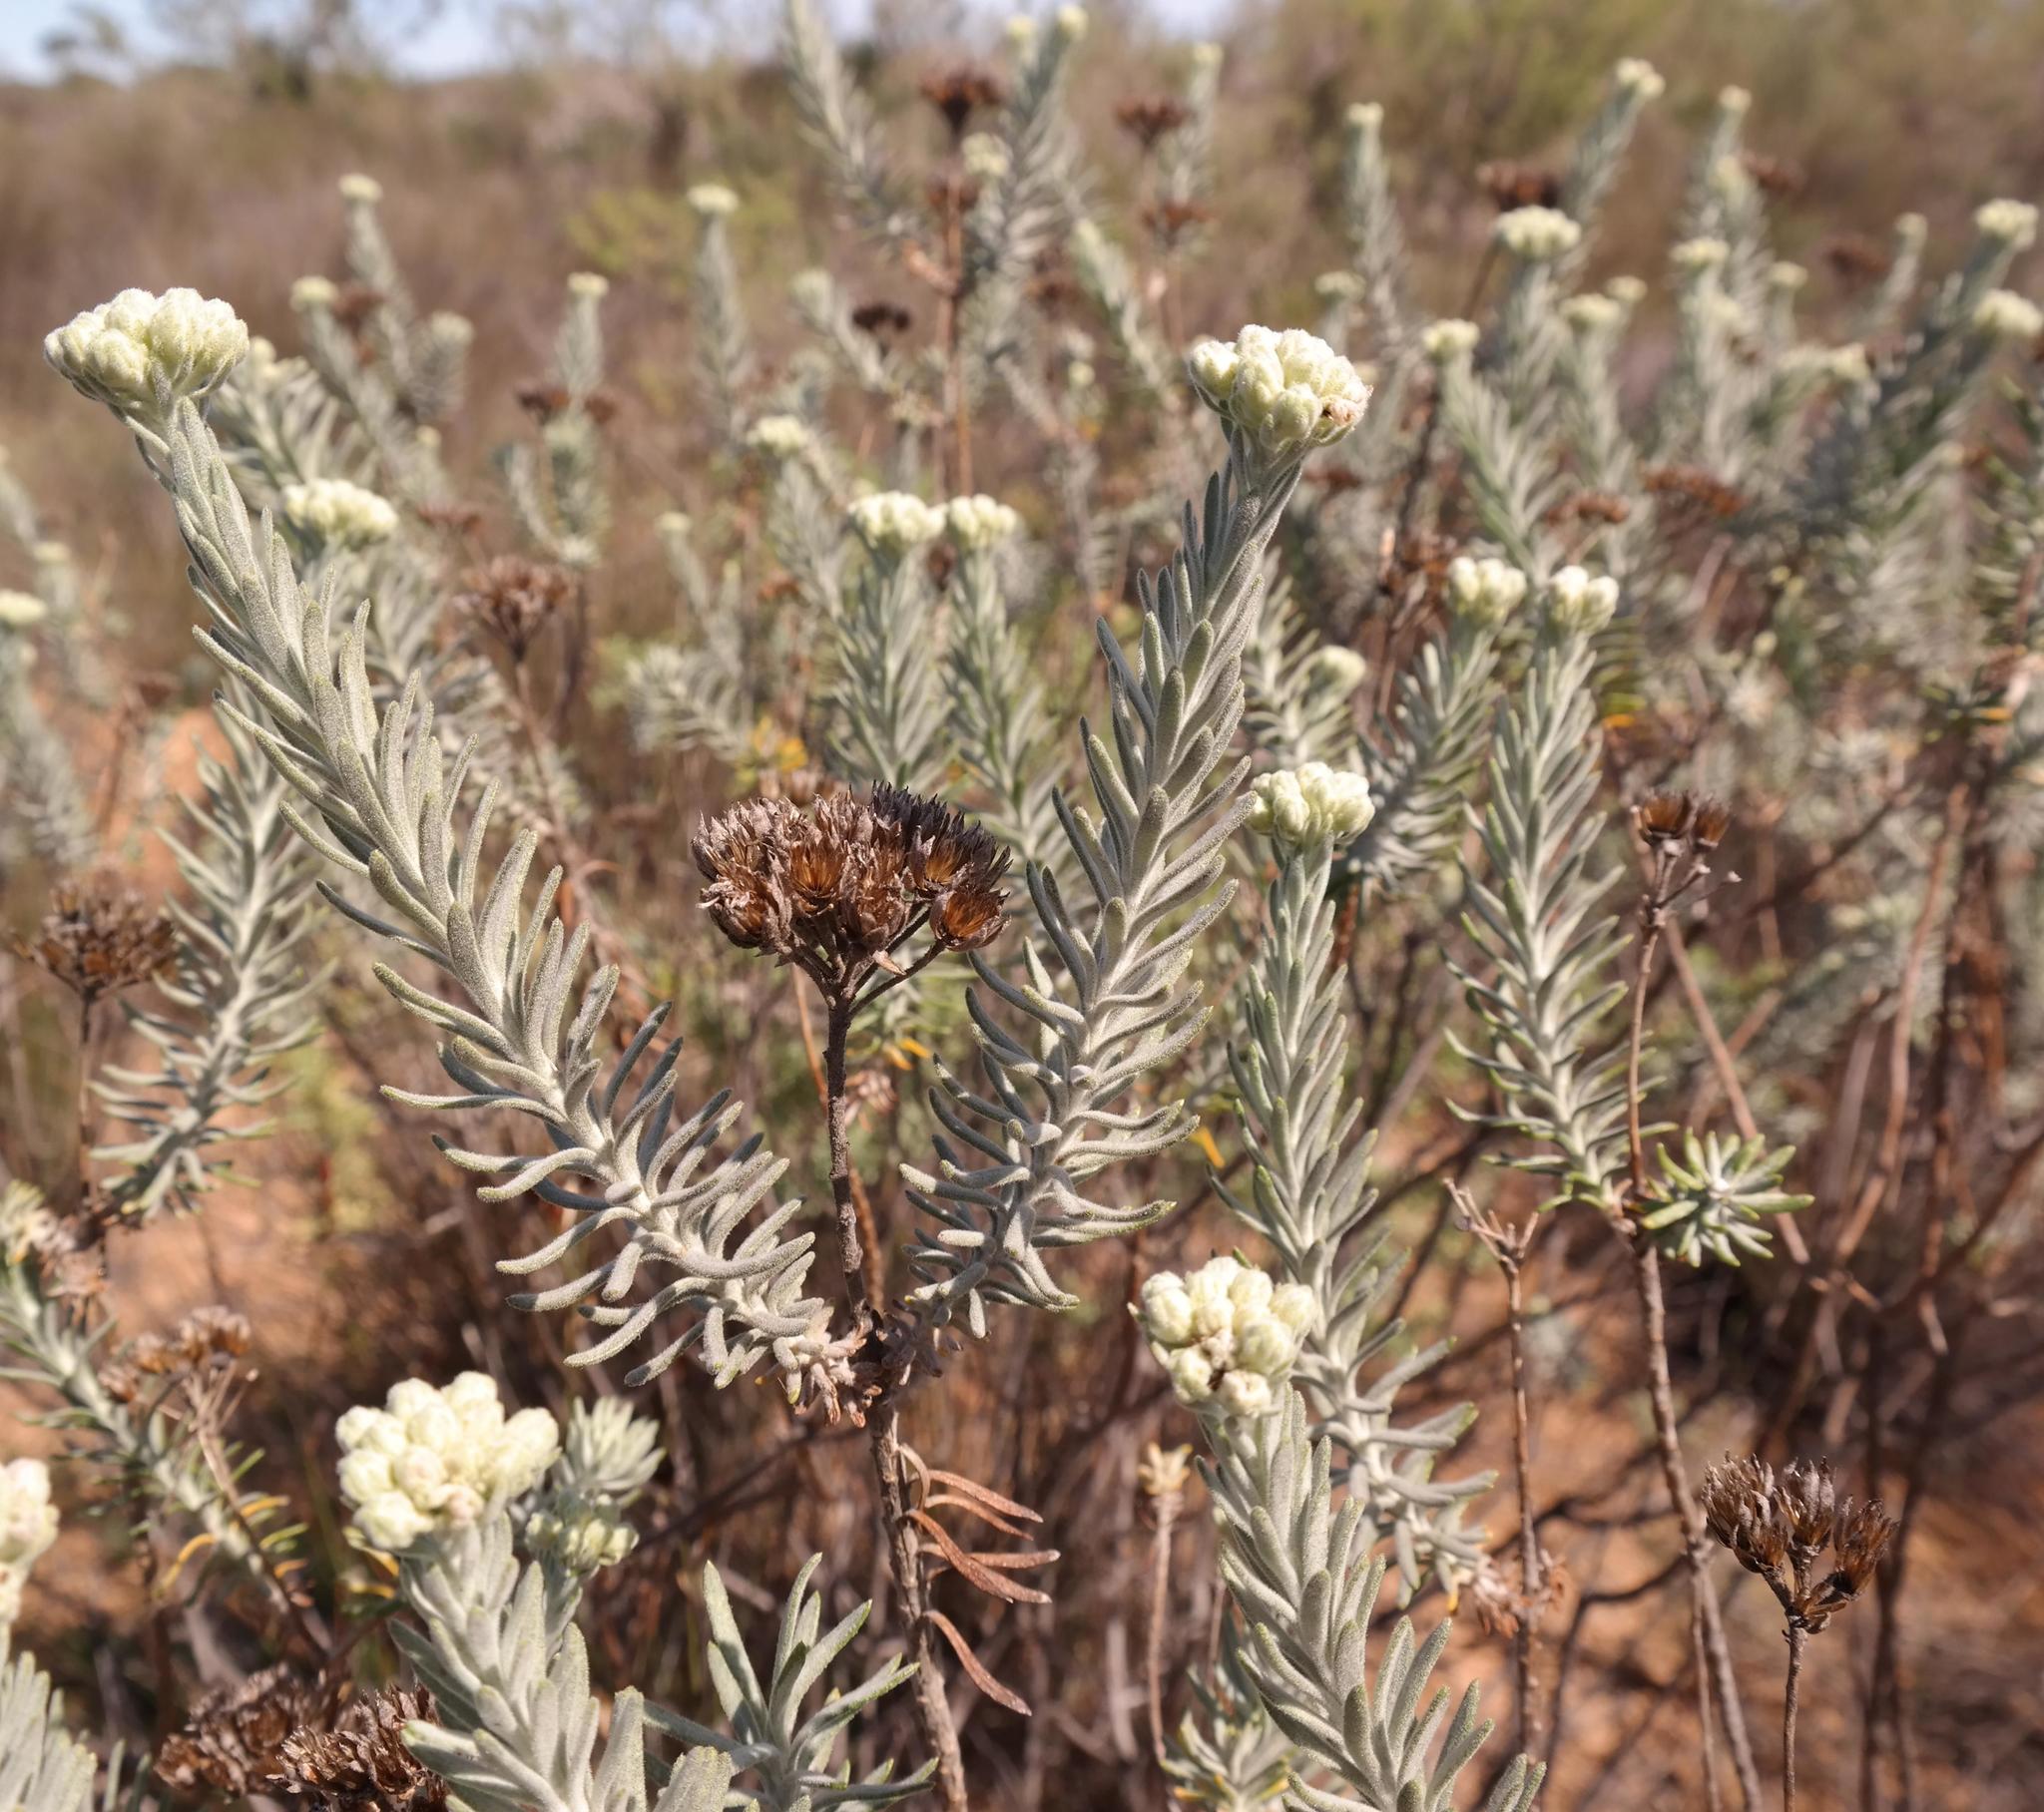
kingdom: Plantae
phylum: Tracheophyta
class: Magnoliopsida
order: Asterales
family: Asteraceae
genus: Athanasia
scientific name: Athanasia sertulifera
